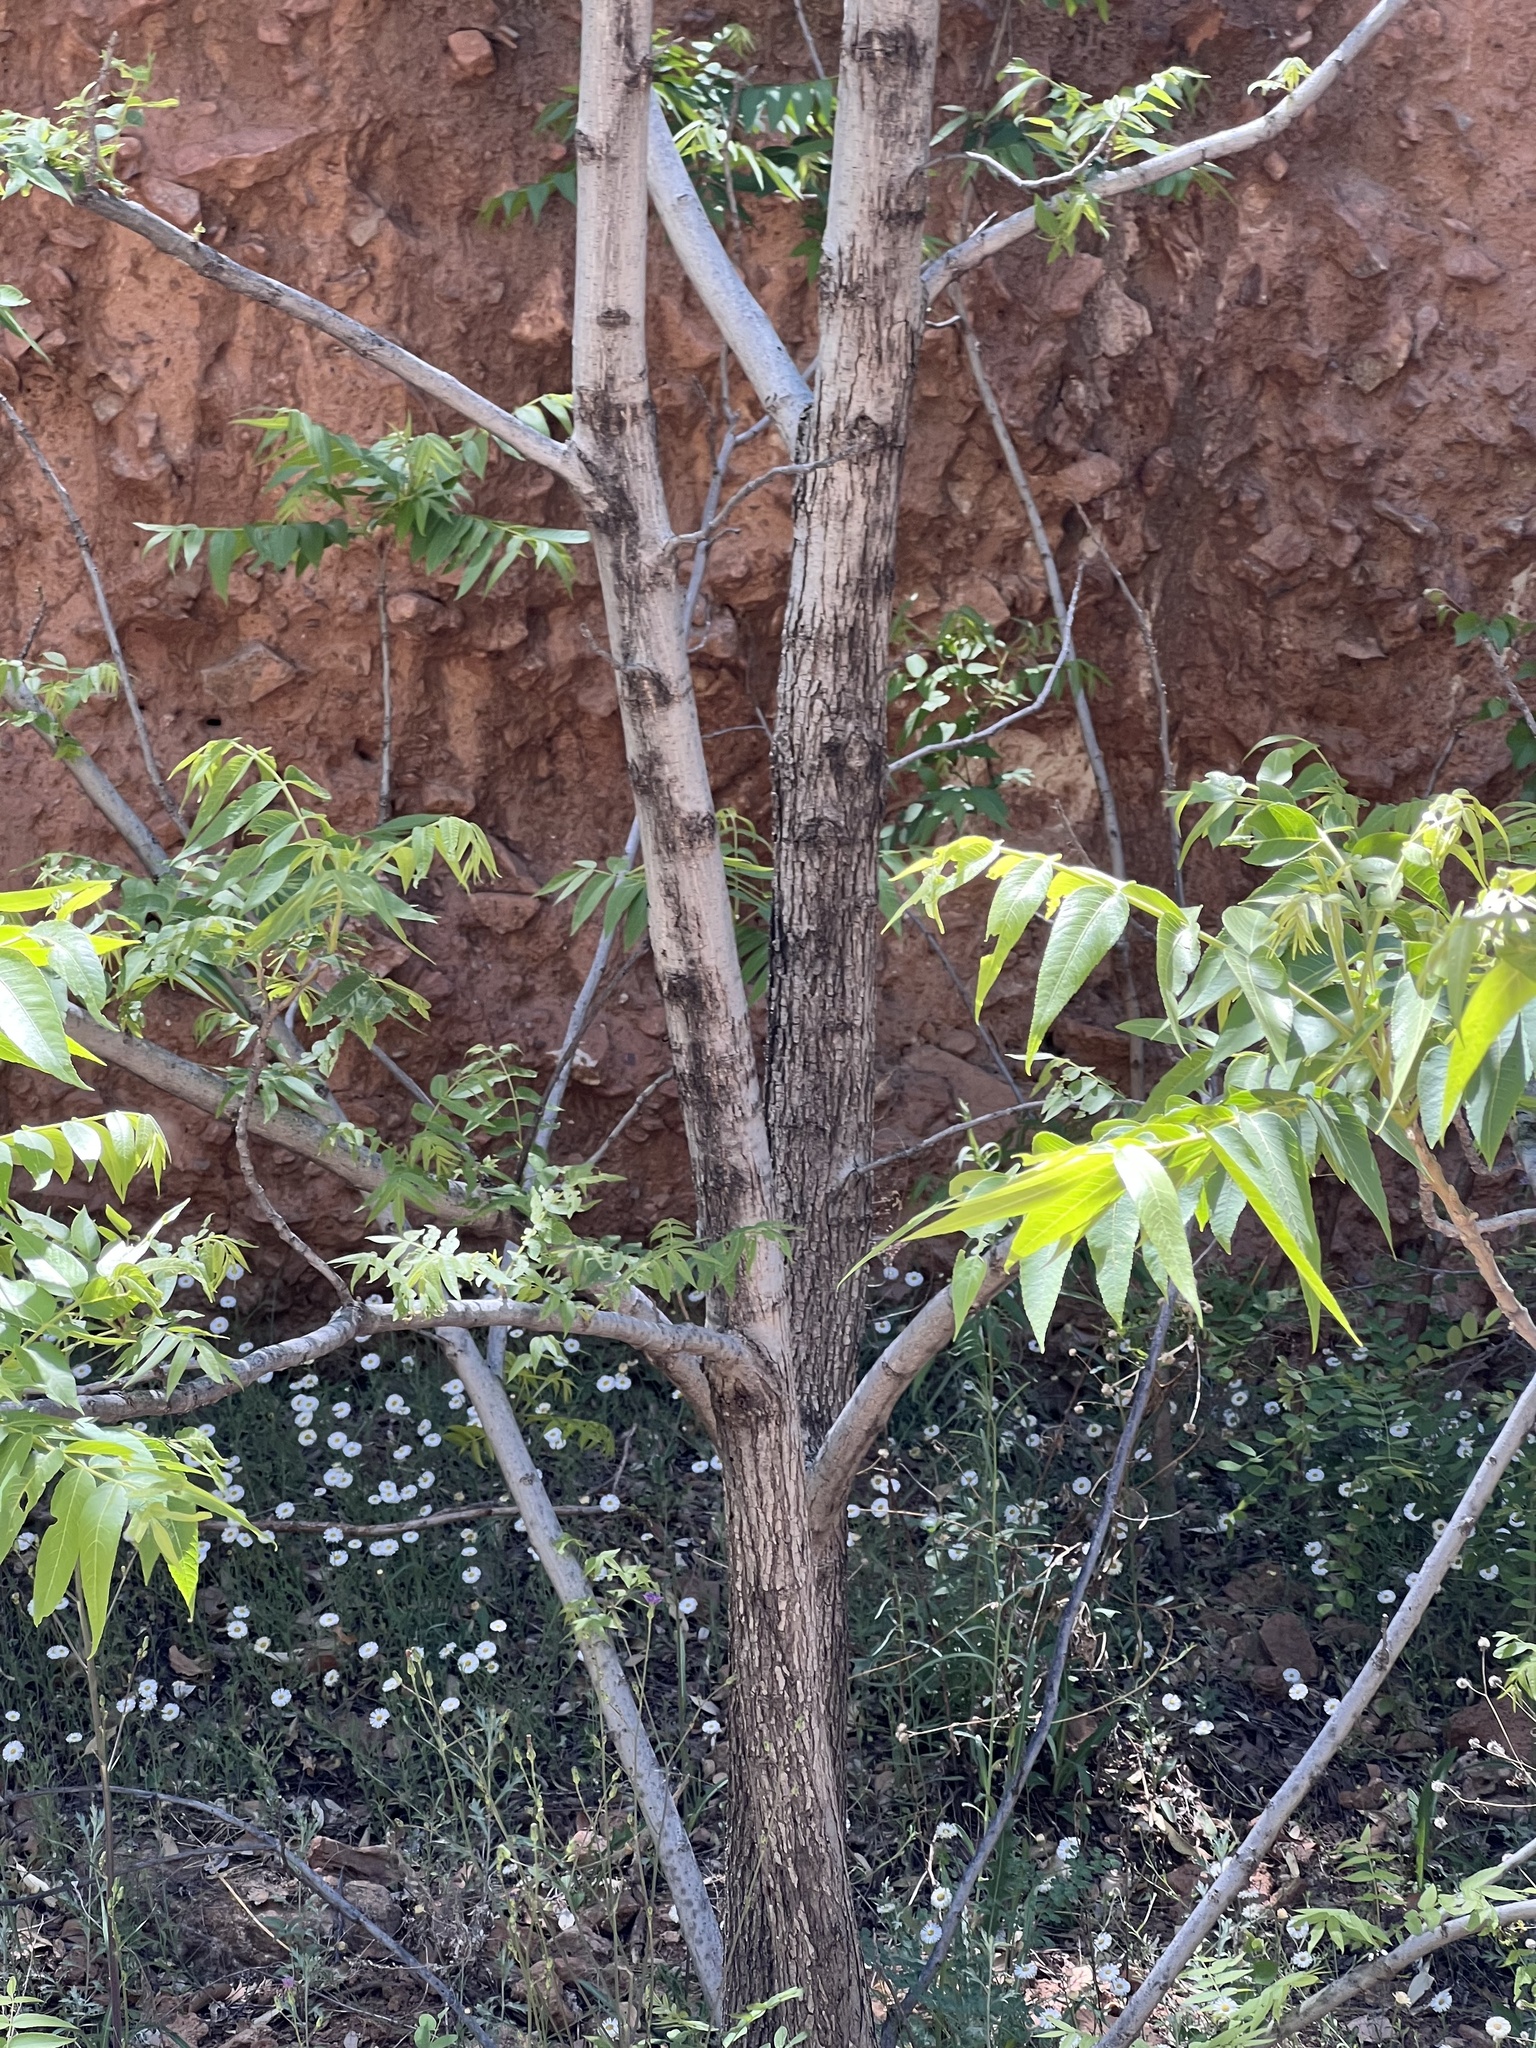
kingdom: Plantae
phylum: Tracheophyta
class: Magnoliopsida
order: Fagales
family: Juglandaceae
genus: Juglans
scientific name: Juglans major
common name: Arizona walnut
